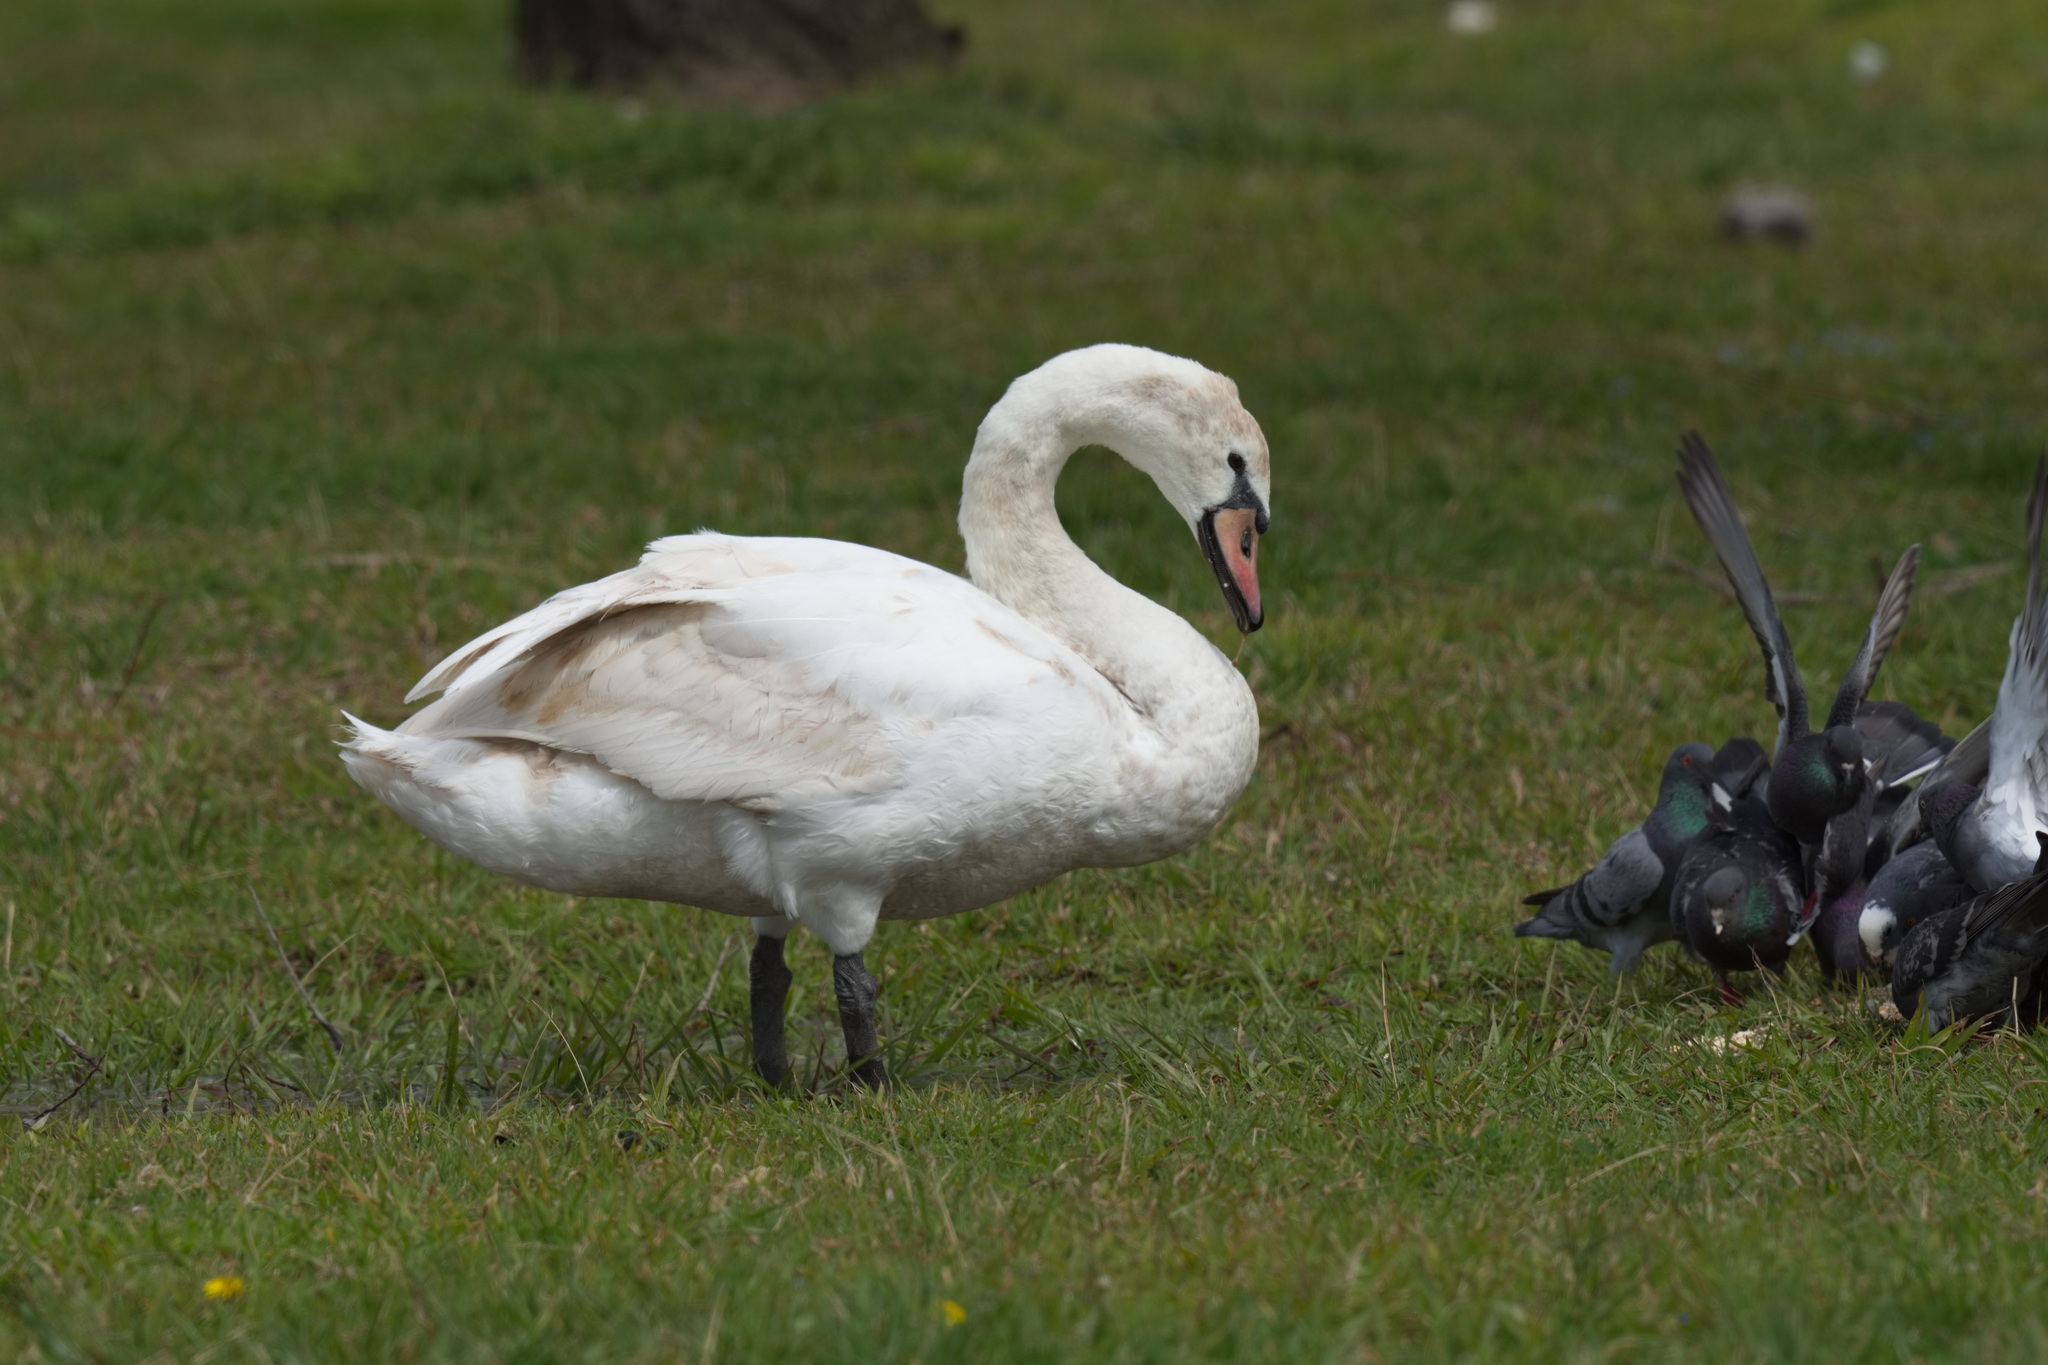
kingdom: Animalia
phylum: Chordata
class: Aves
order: Anseriformes
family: Anatidae
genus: Cygnus
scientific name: Cygnus olor
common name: Mute swan
